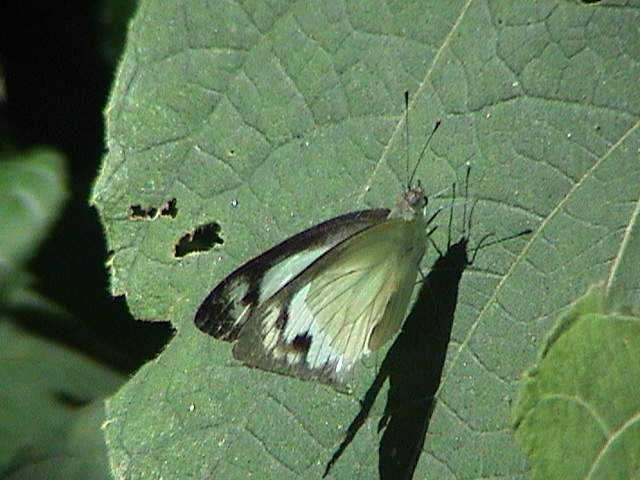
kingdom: Animalia
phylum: Arthropoda
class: Insecta
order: Lepidoptera
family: Pieridae
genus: Appias
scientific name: Appias albina
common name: Common albatross
